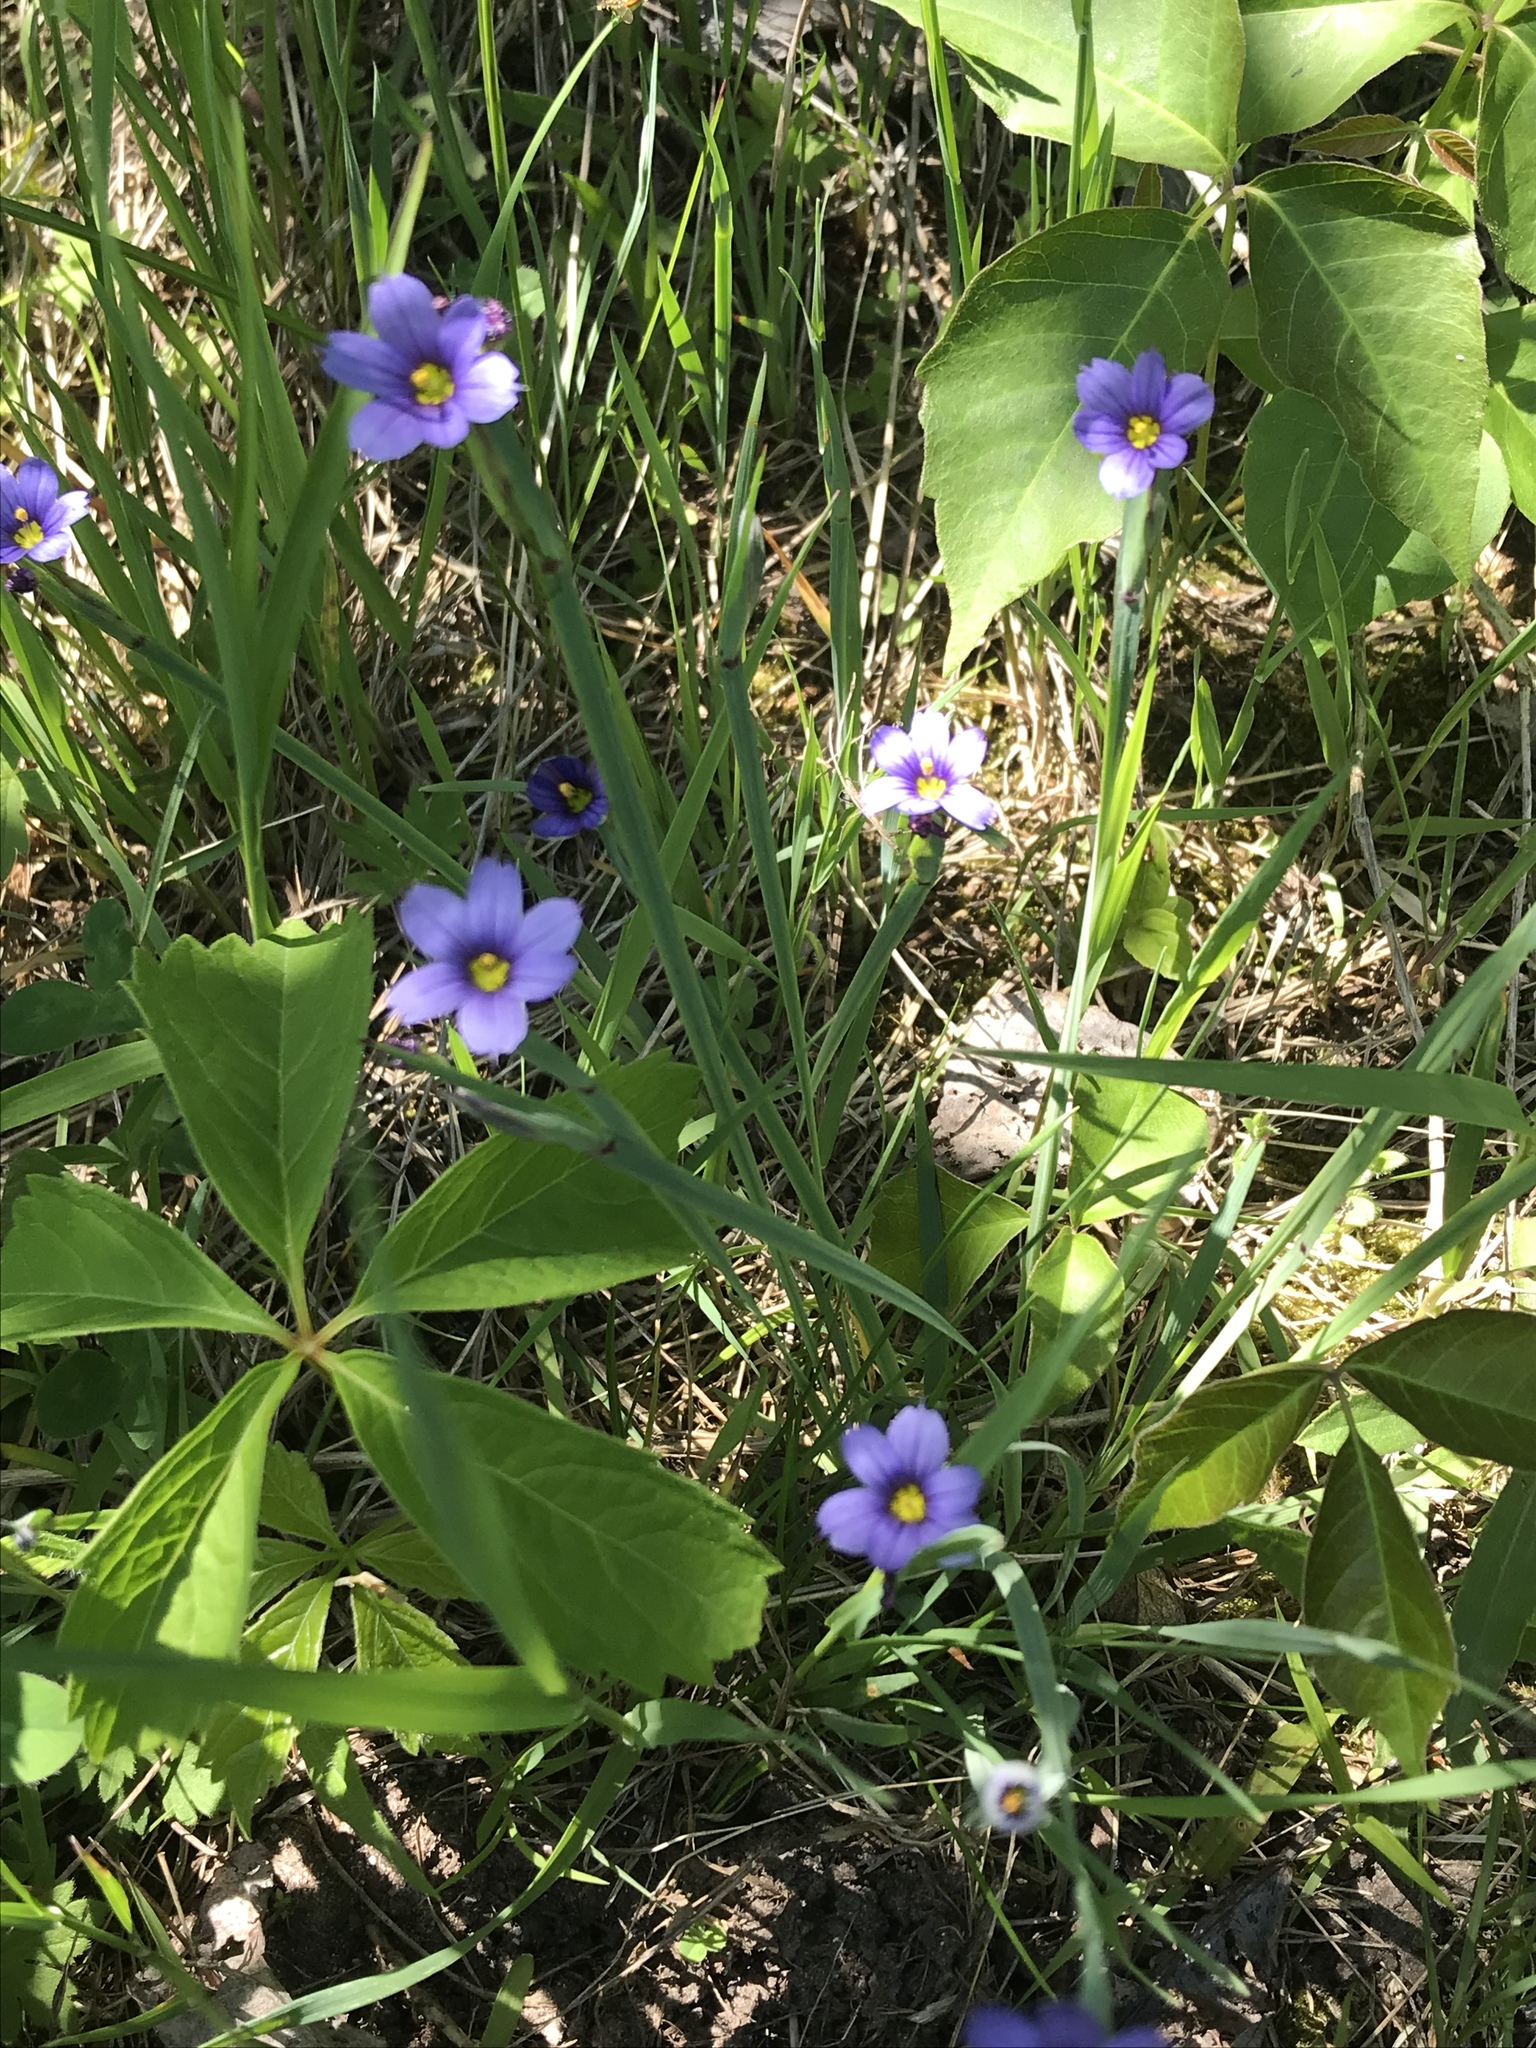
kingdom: Plantae
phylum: Tracheophyta
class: Liliopsida
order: Asparagales
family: Iridaceae
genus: Sisyrinchium
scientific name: Sisyrinchium montanum
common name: American blue-eyed-grass
